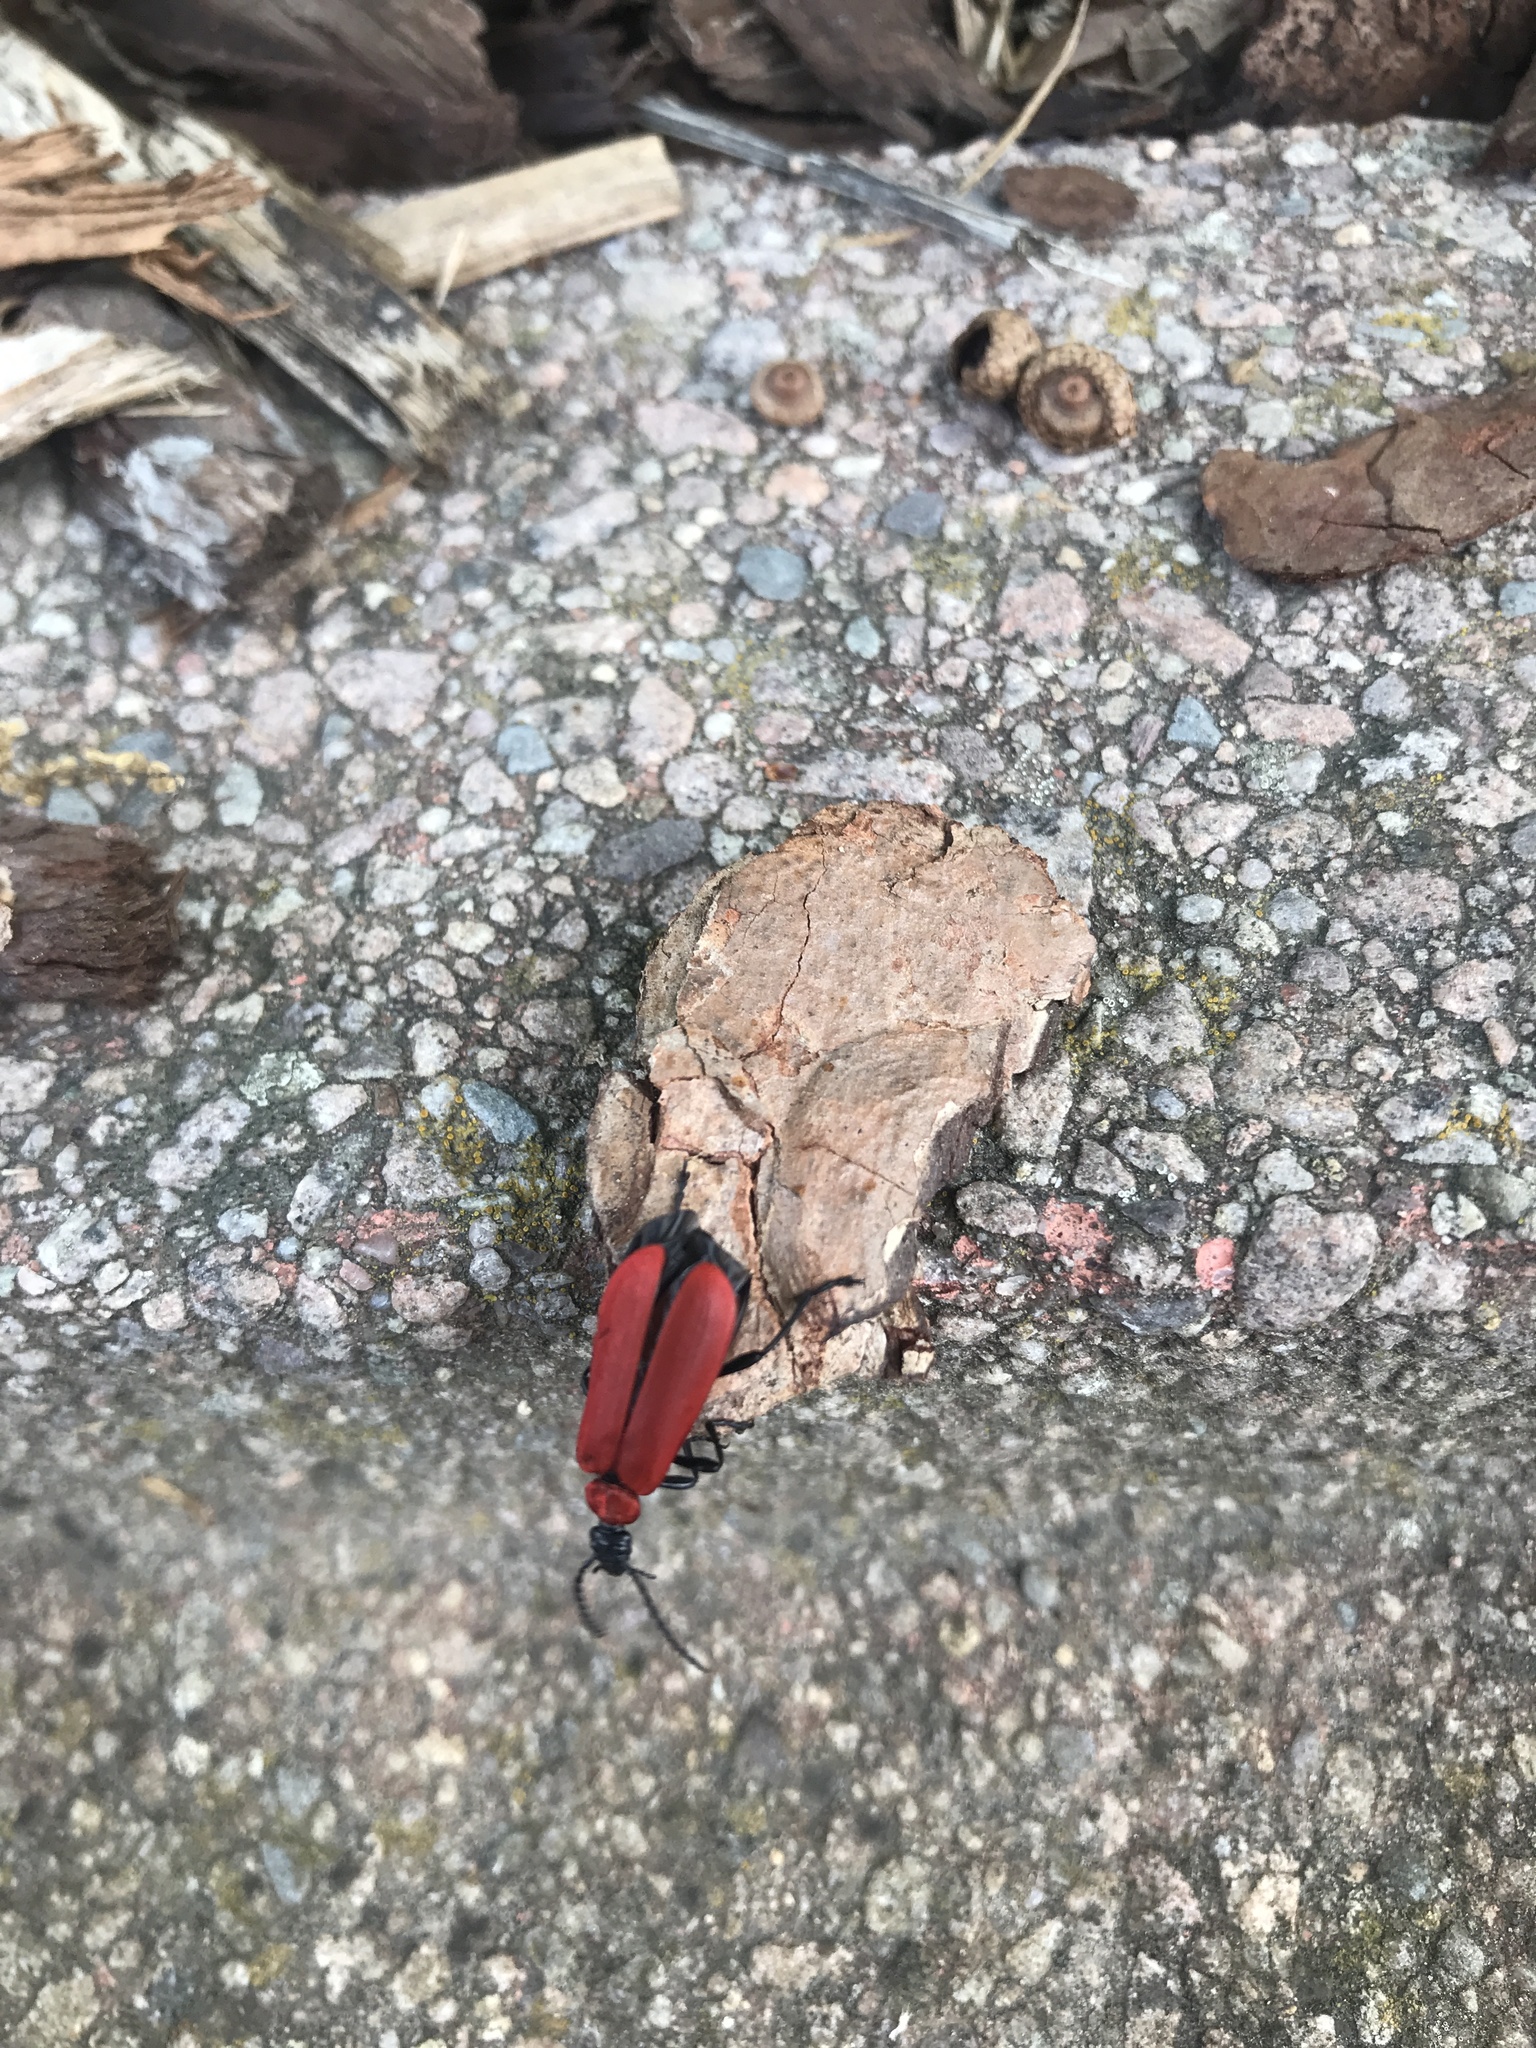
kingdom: Animalia
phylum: Arthropoda
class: Insecta
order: Coleoptera
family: Pyrochroidae
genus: Pyrochroa
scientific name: Pyrochroa coccinea
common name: Black-headed cardinal beetle
